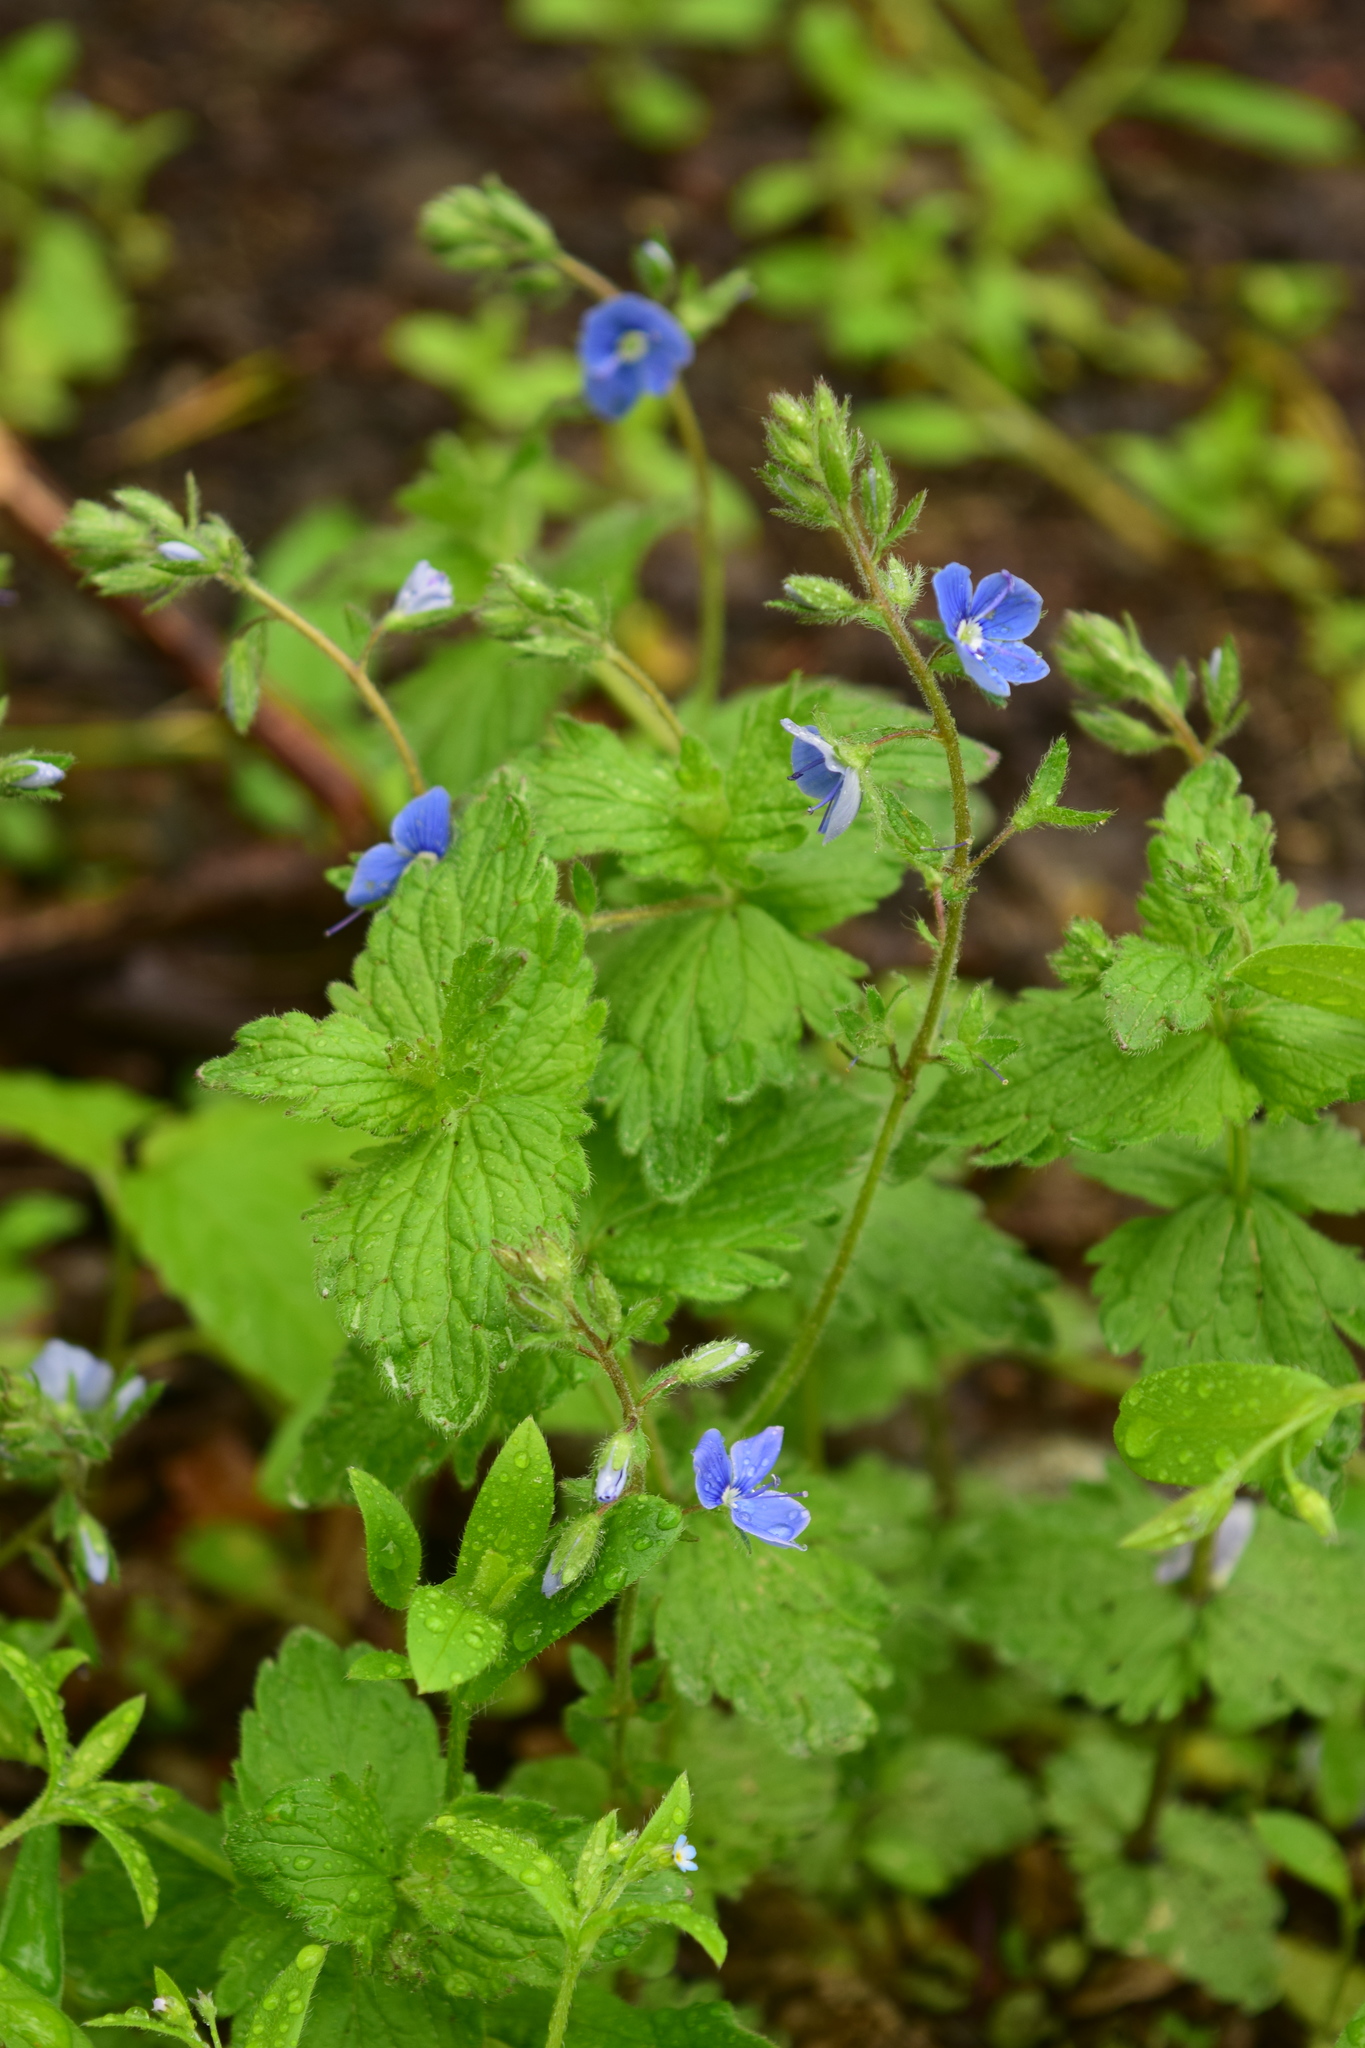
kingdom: Plantae
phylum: Tracheophyta
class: Magnoliopsida
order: Lamiales
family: Plantaginaceae
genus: Veronica
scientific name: Veronica chamaedrys
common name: Germander speedwell
